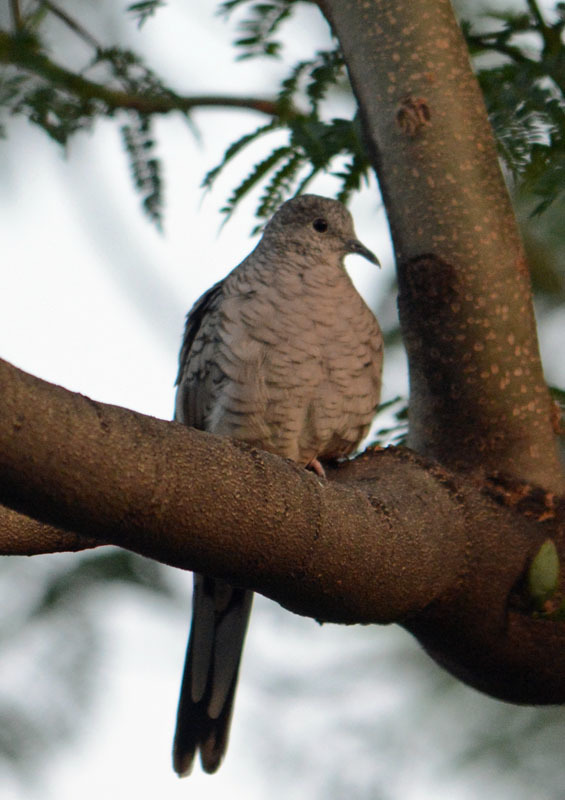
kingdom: Animalia
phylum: Chordata
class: Aves
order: Columbiformes
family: Columbidae
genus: Columbina
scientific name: Columbina inca
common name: Inca dove
